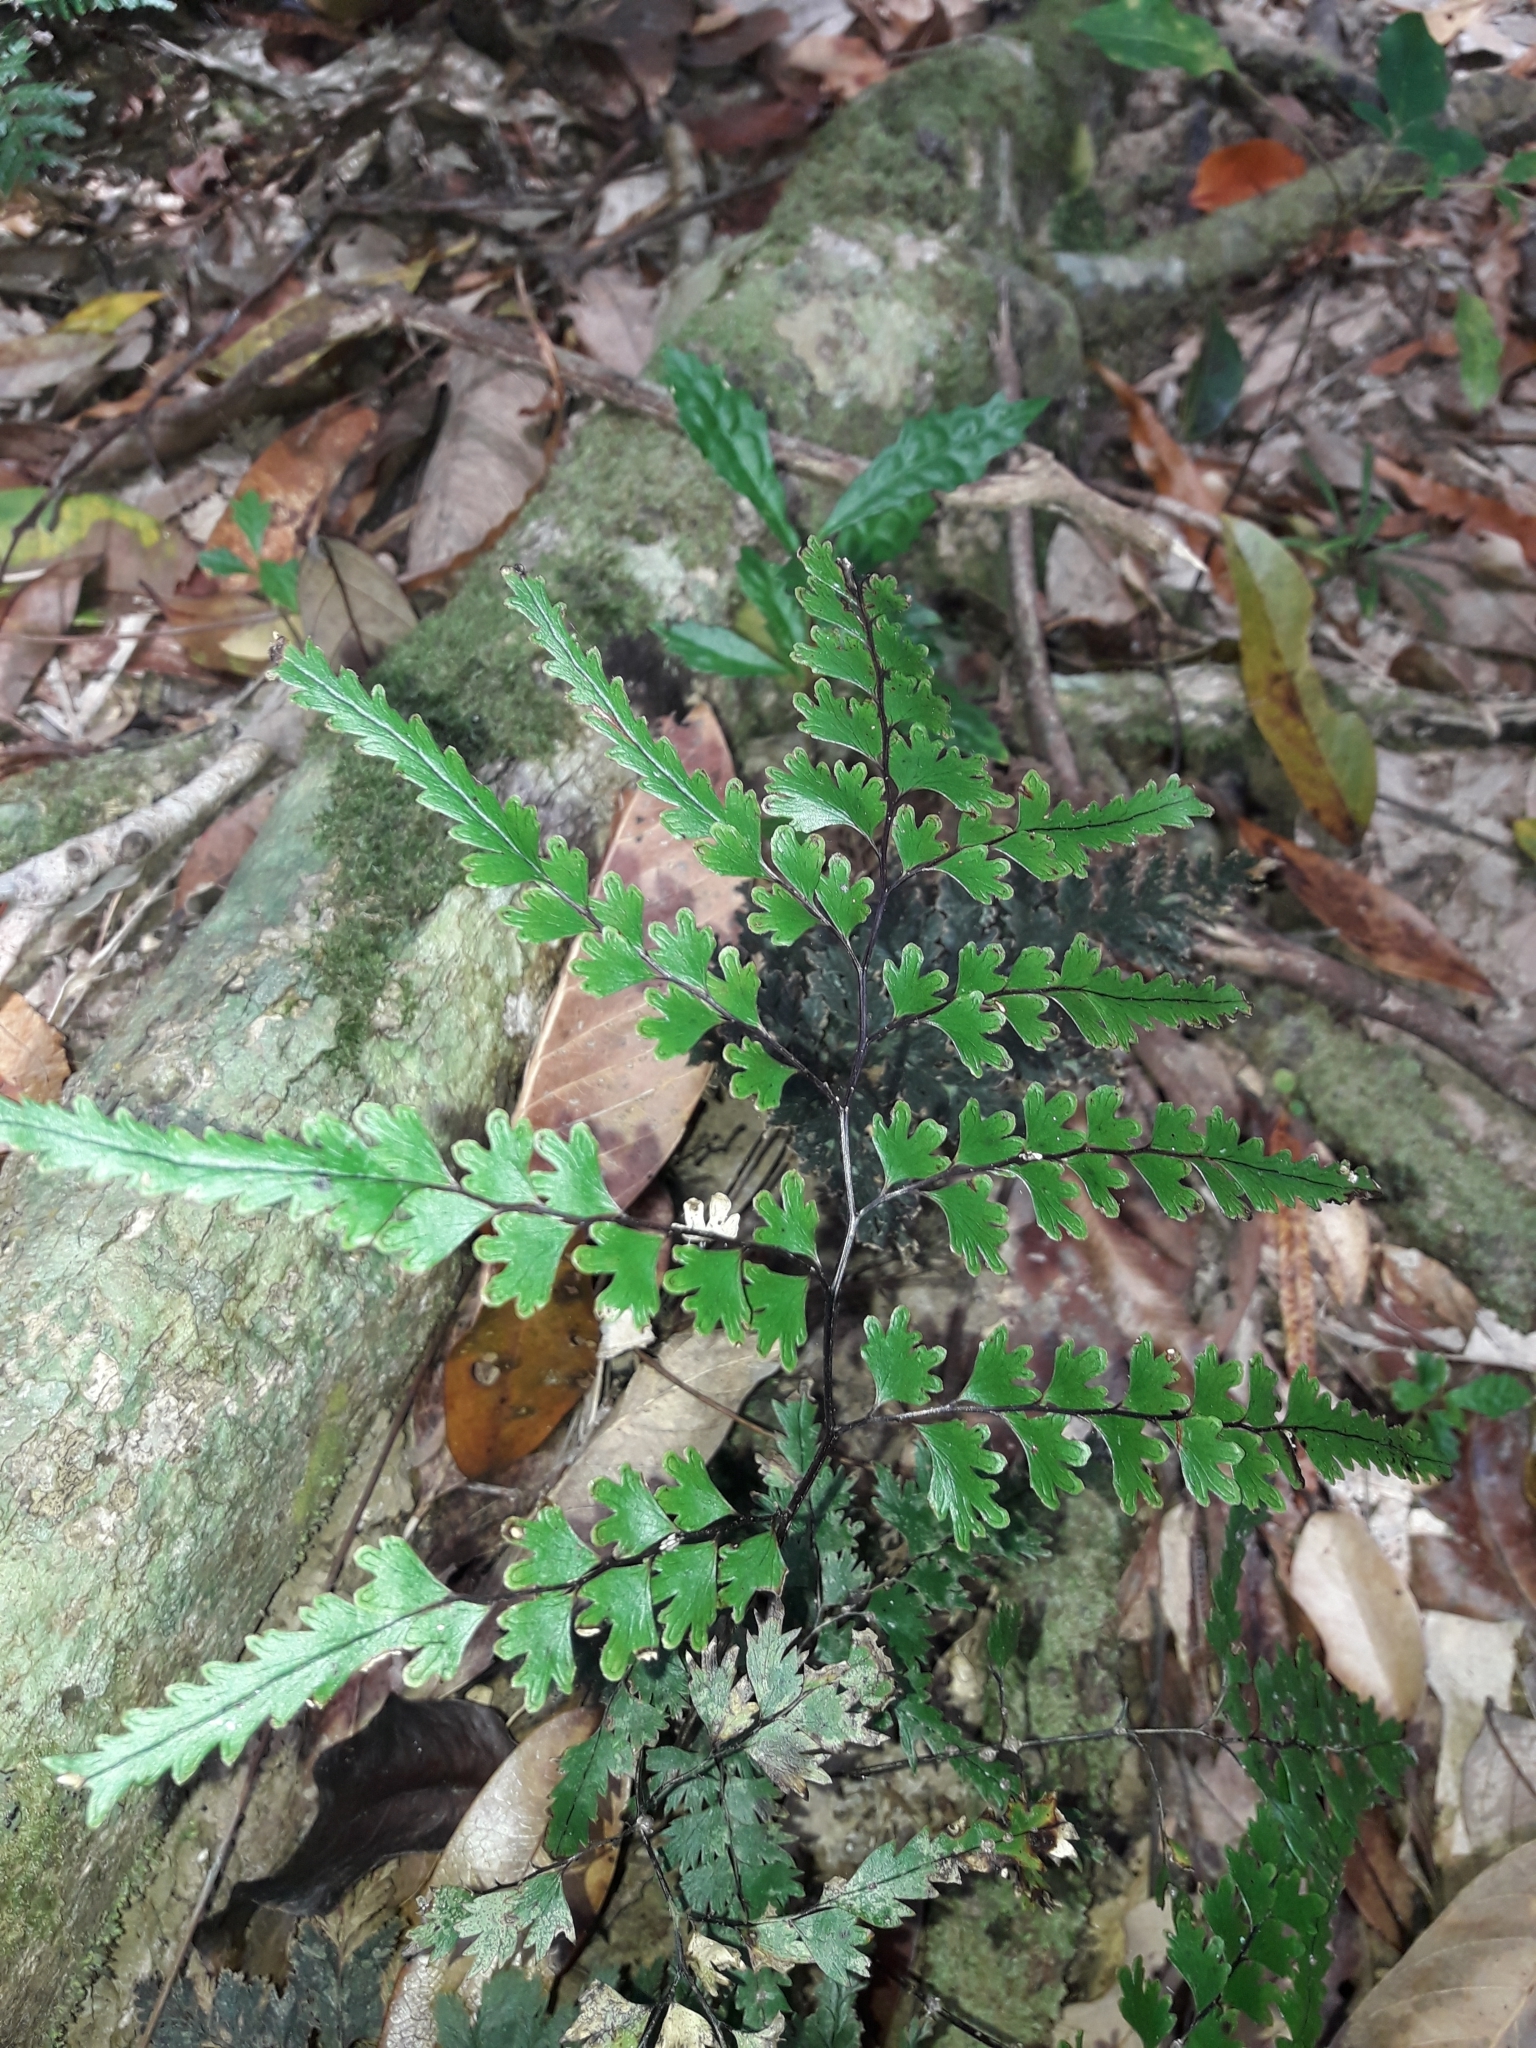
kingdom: Plantae
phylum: Tracheophyta
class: Polypodiopsida
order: Polypodiales
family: Lindsaeaceae
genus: Lindsaea
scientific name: Lindsaea prolongata
